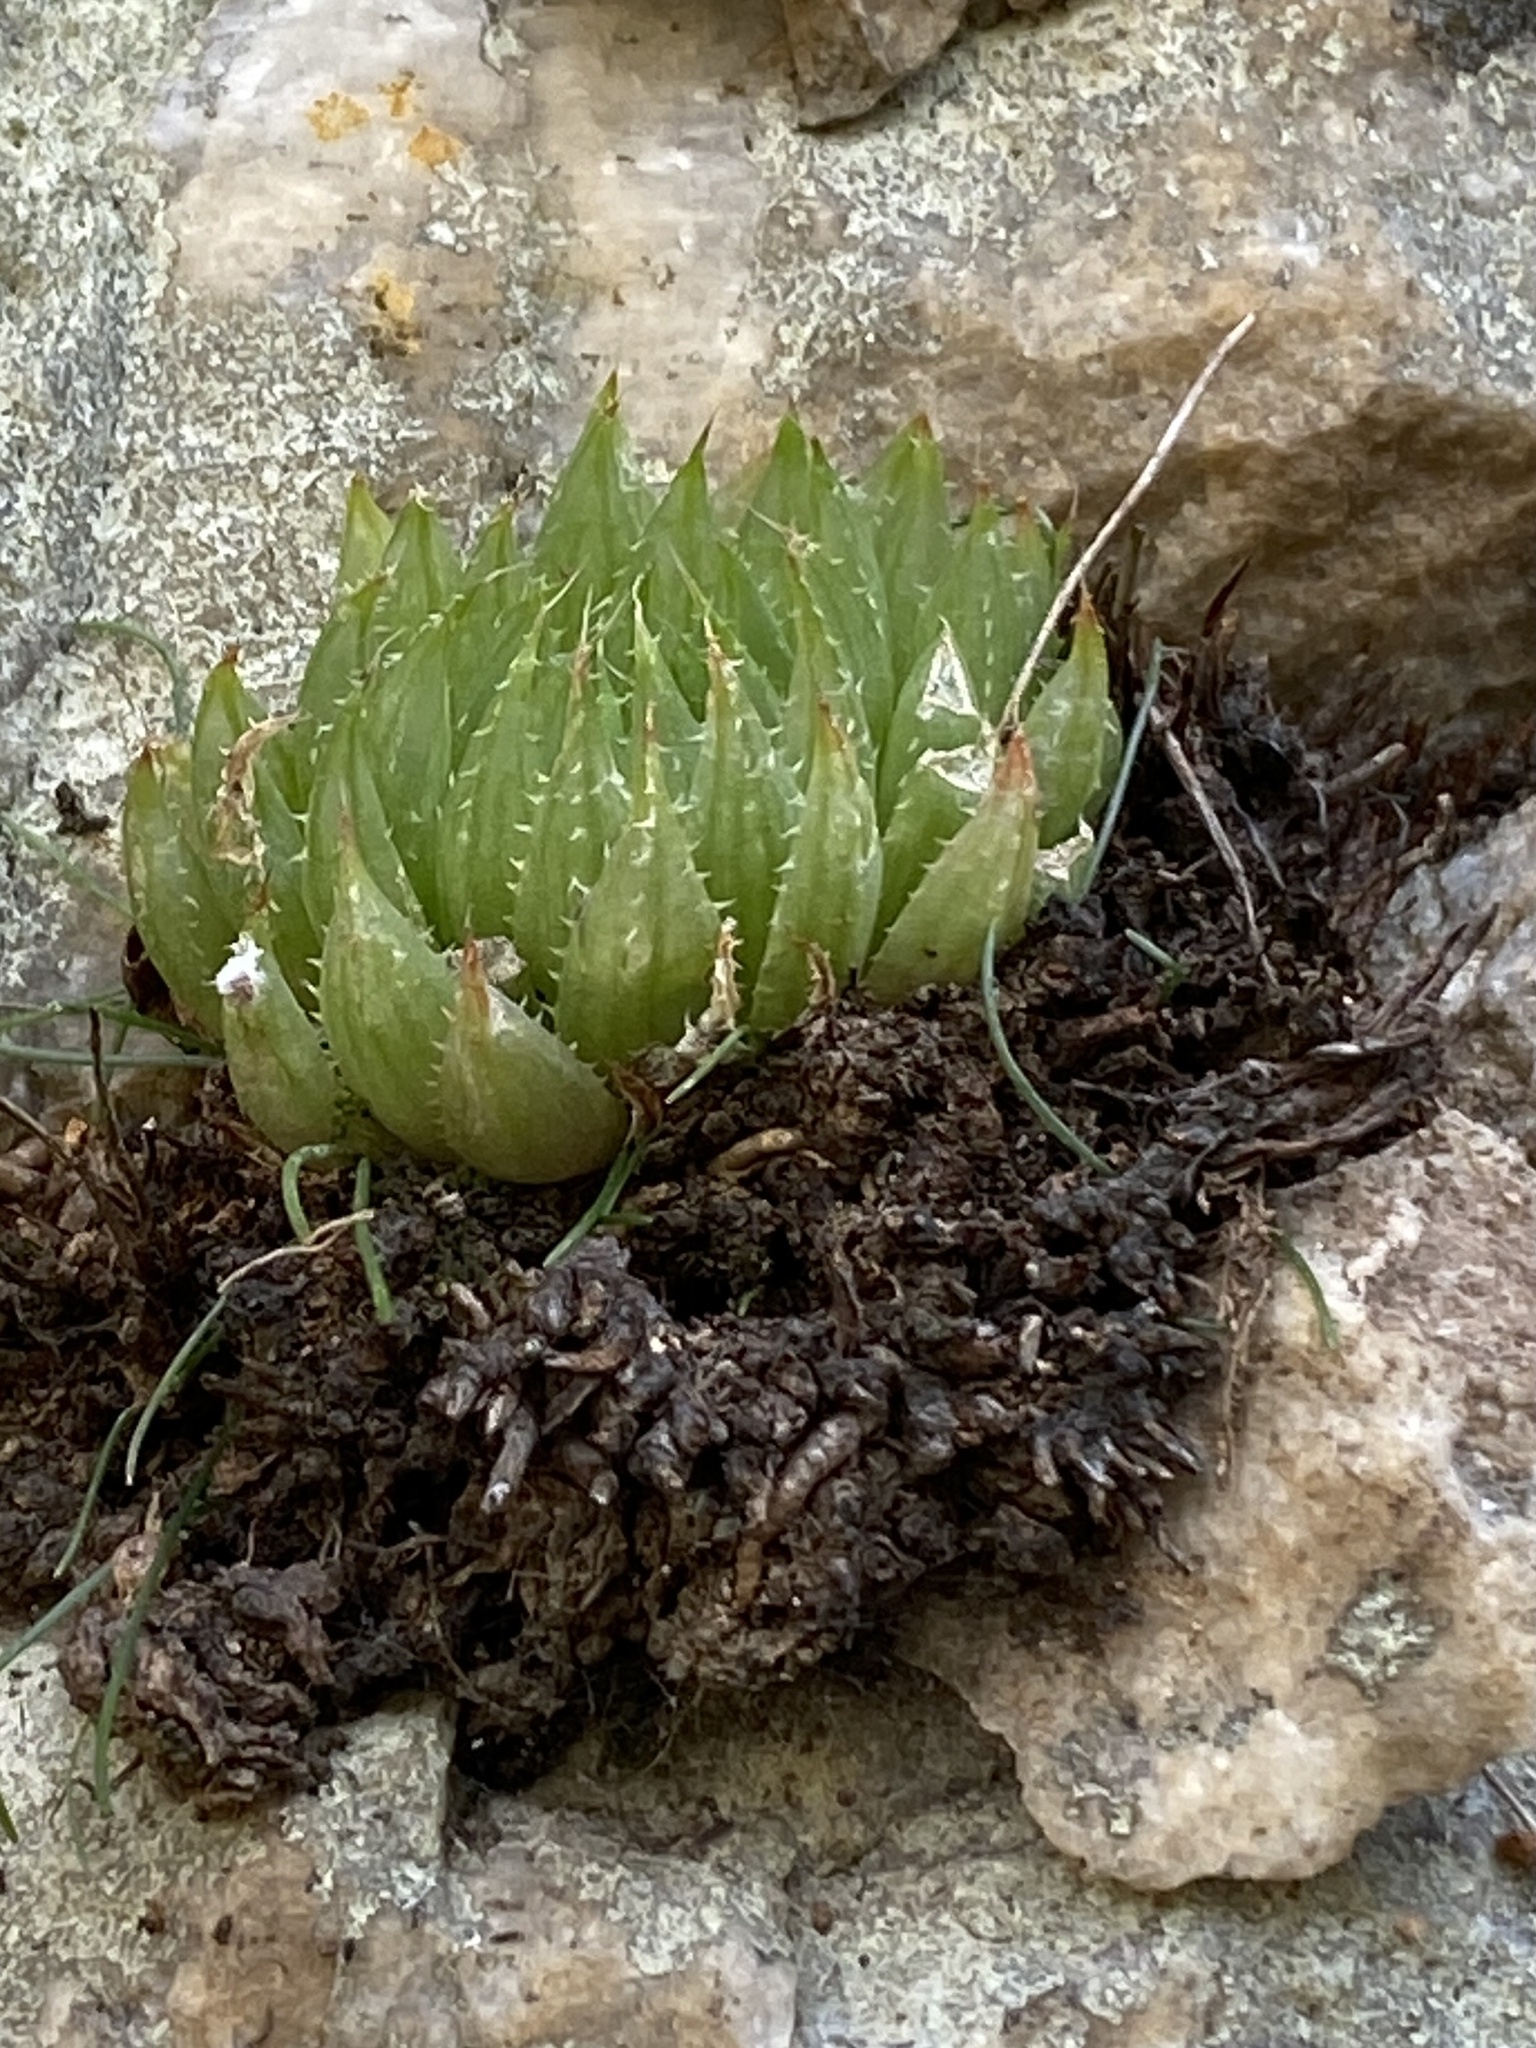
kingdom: Plantae
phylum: Tracheophyta
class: Liliopsida
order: Asparagales
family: Asphodelaceae
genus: Haworthia
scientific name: Haworthia decipiens
